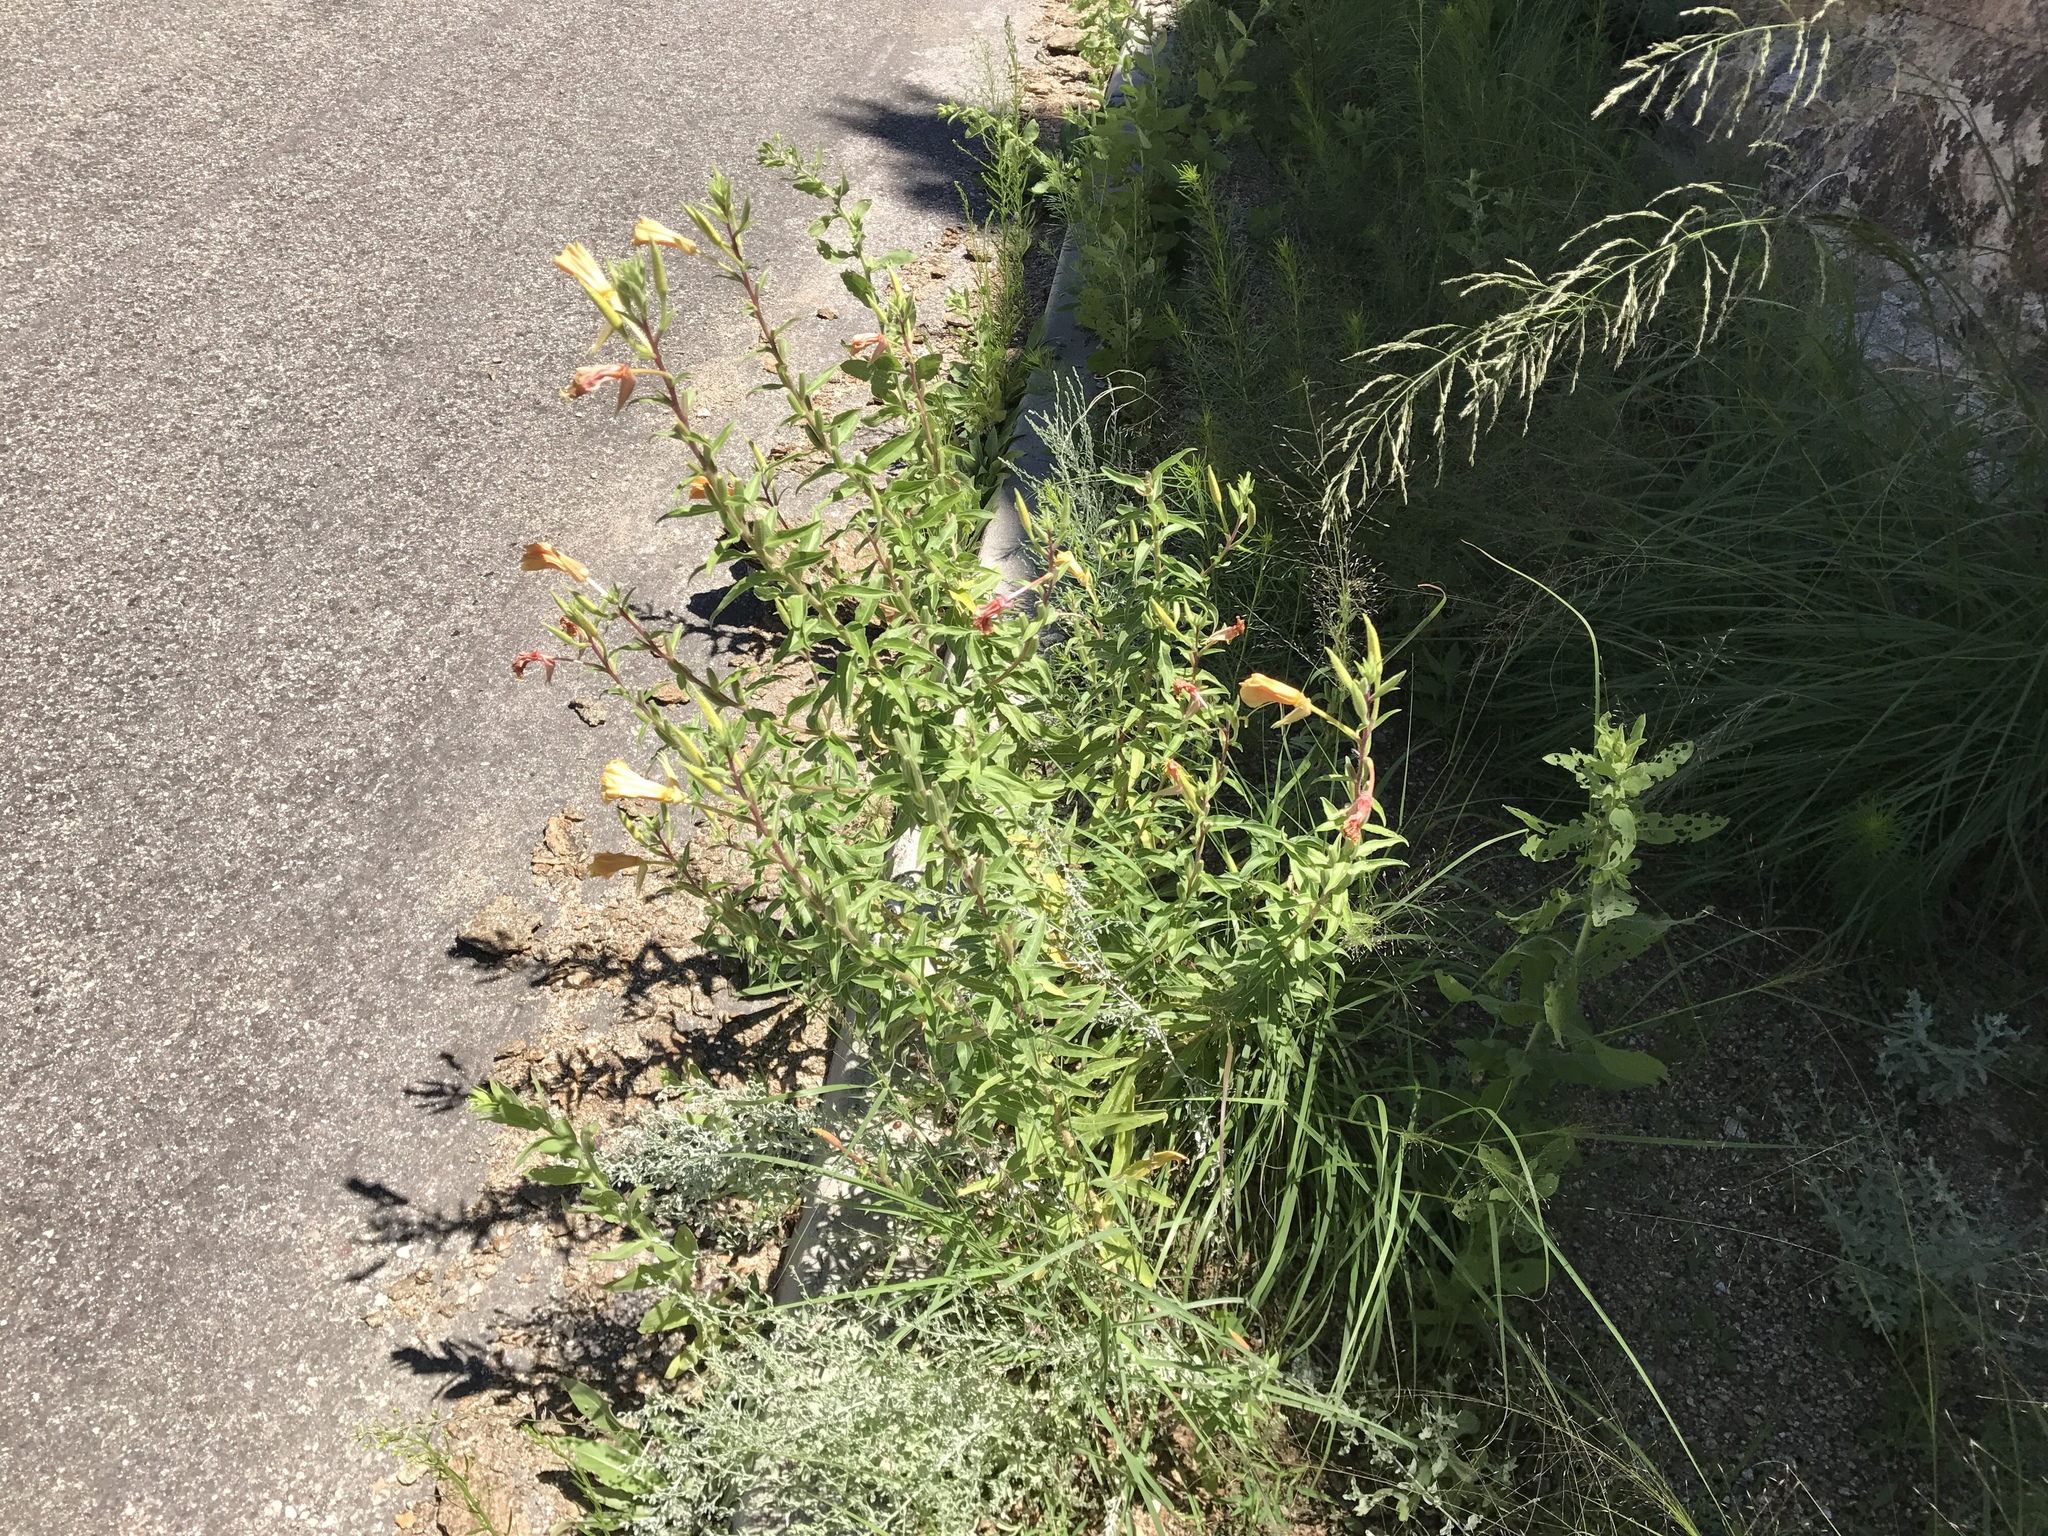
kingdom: Plantae
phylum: Tracheophyta
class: Magnoliopsida
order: Myrtales
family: Onagraceae
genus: Oenothera
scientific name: Oenothera elata
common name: Hooker's evening-primrose
